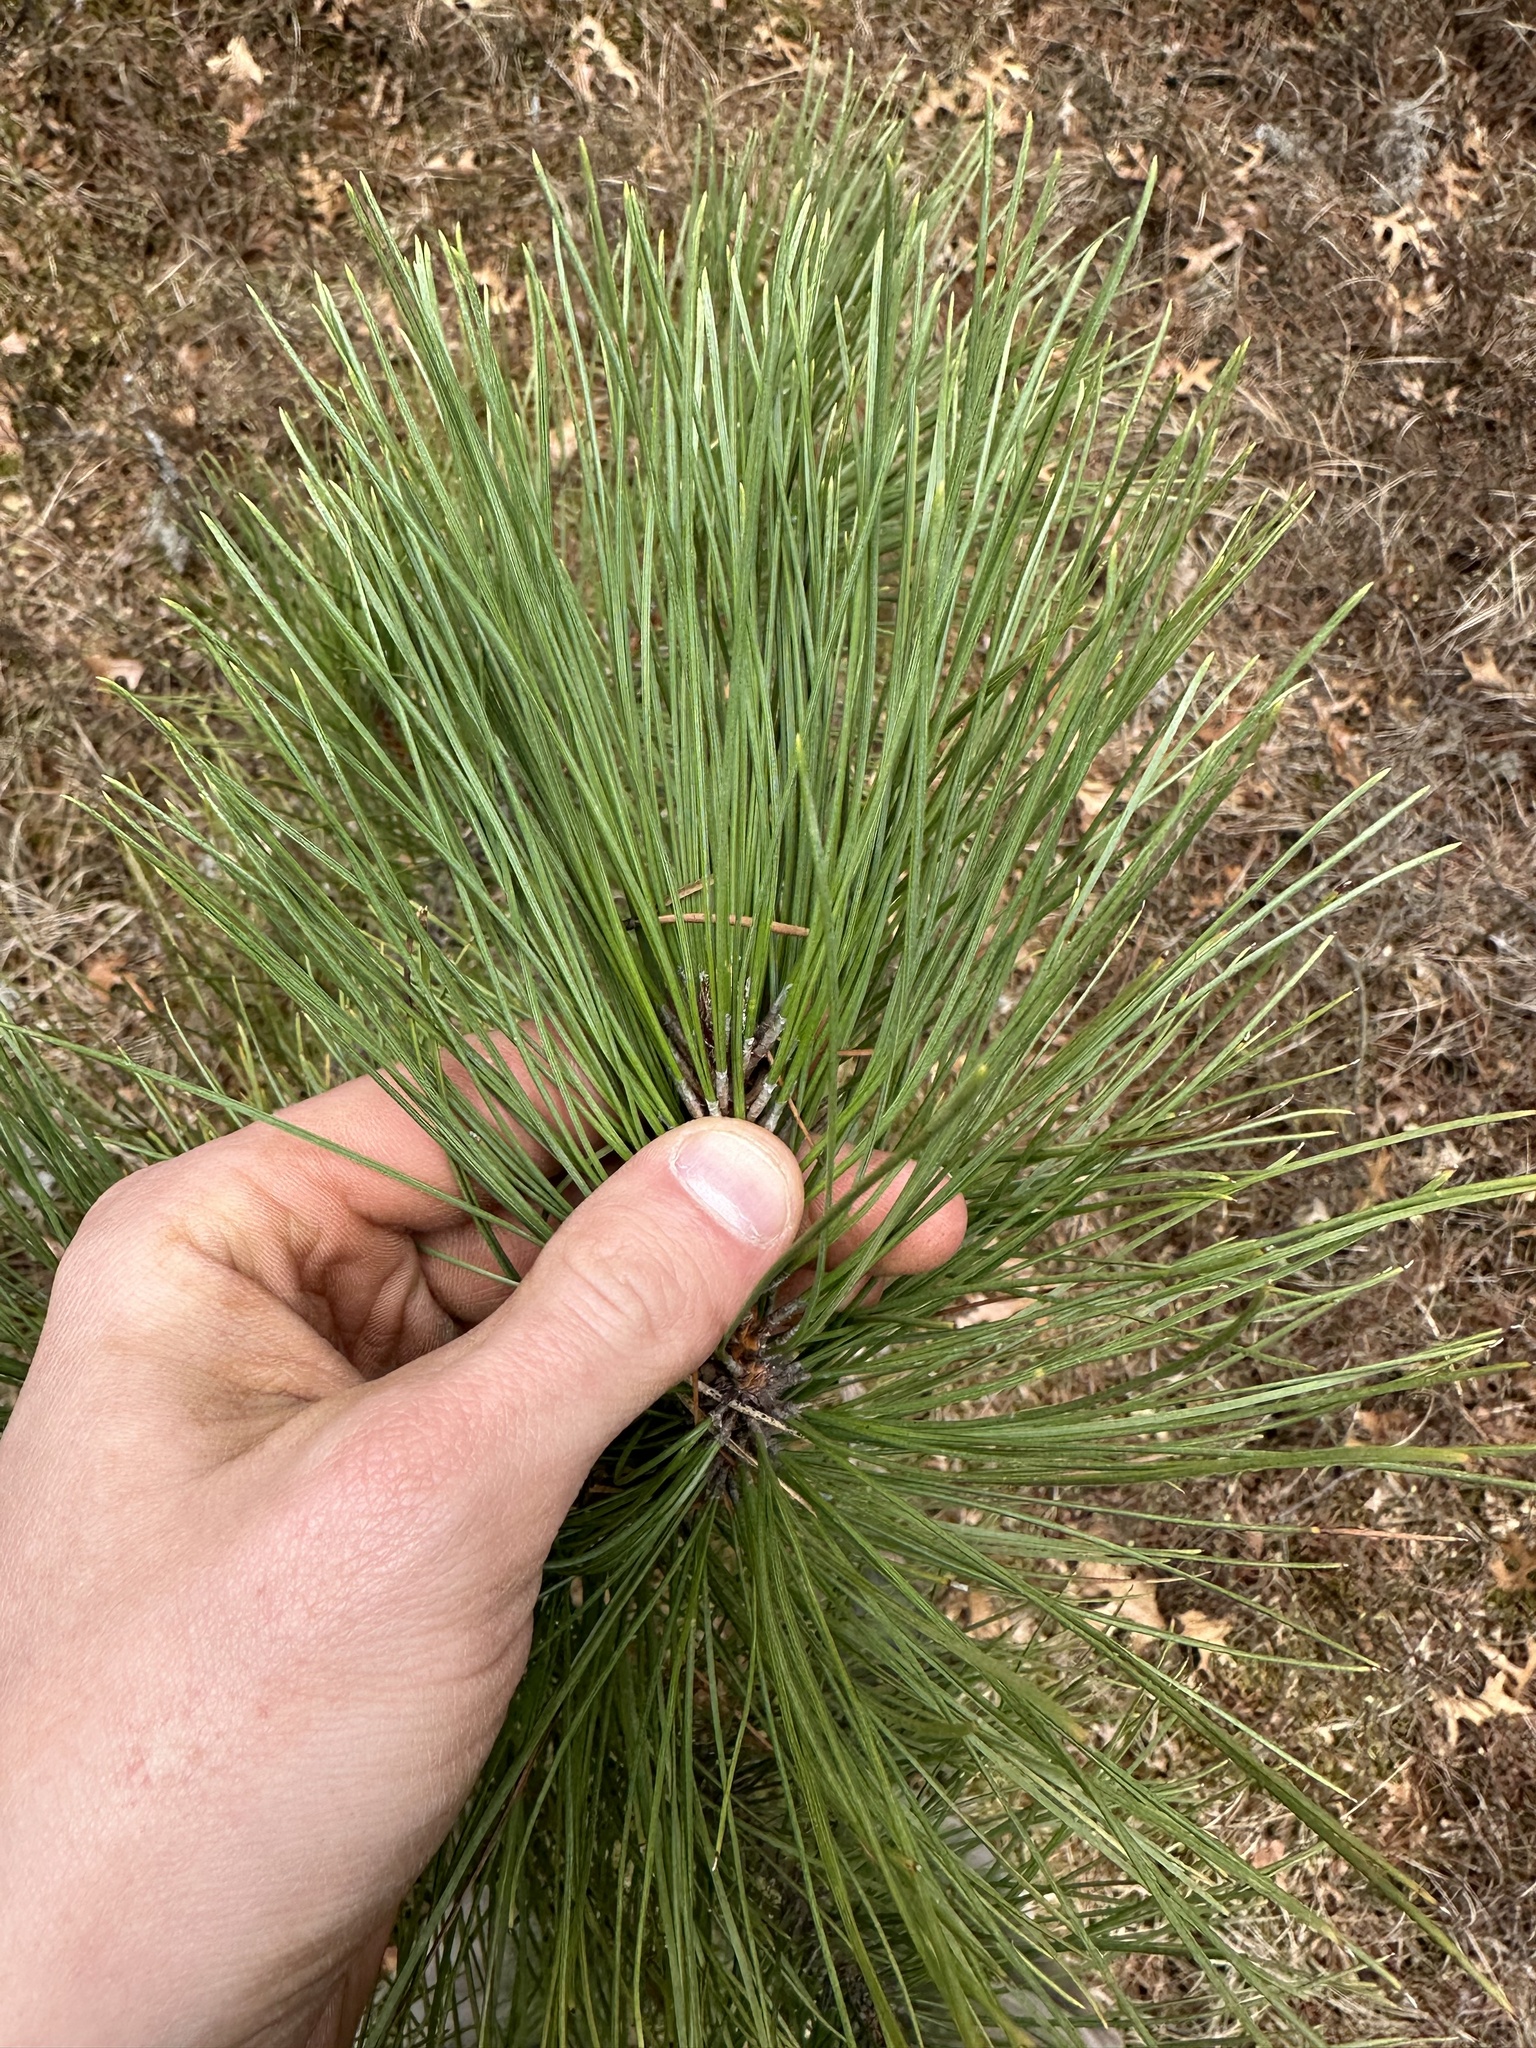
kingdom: Plantae
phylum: Tracheophyta
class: Pinopsida
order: Pinales
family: Pinaceae
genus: Pinus
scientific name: Pinus resinosa
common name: Norway pine
